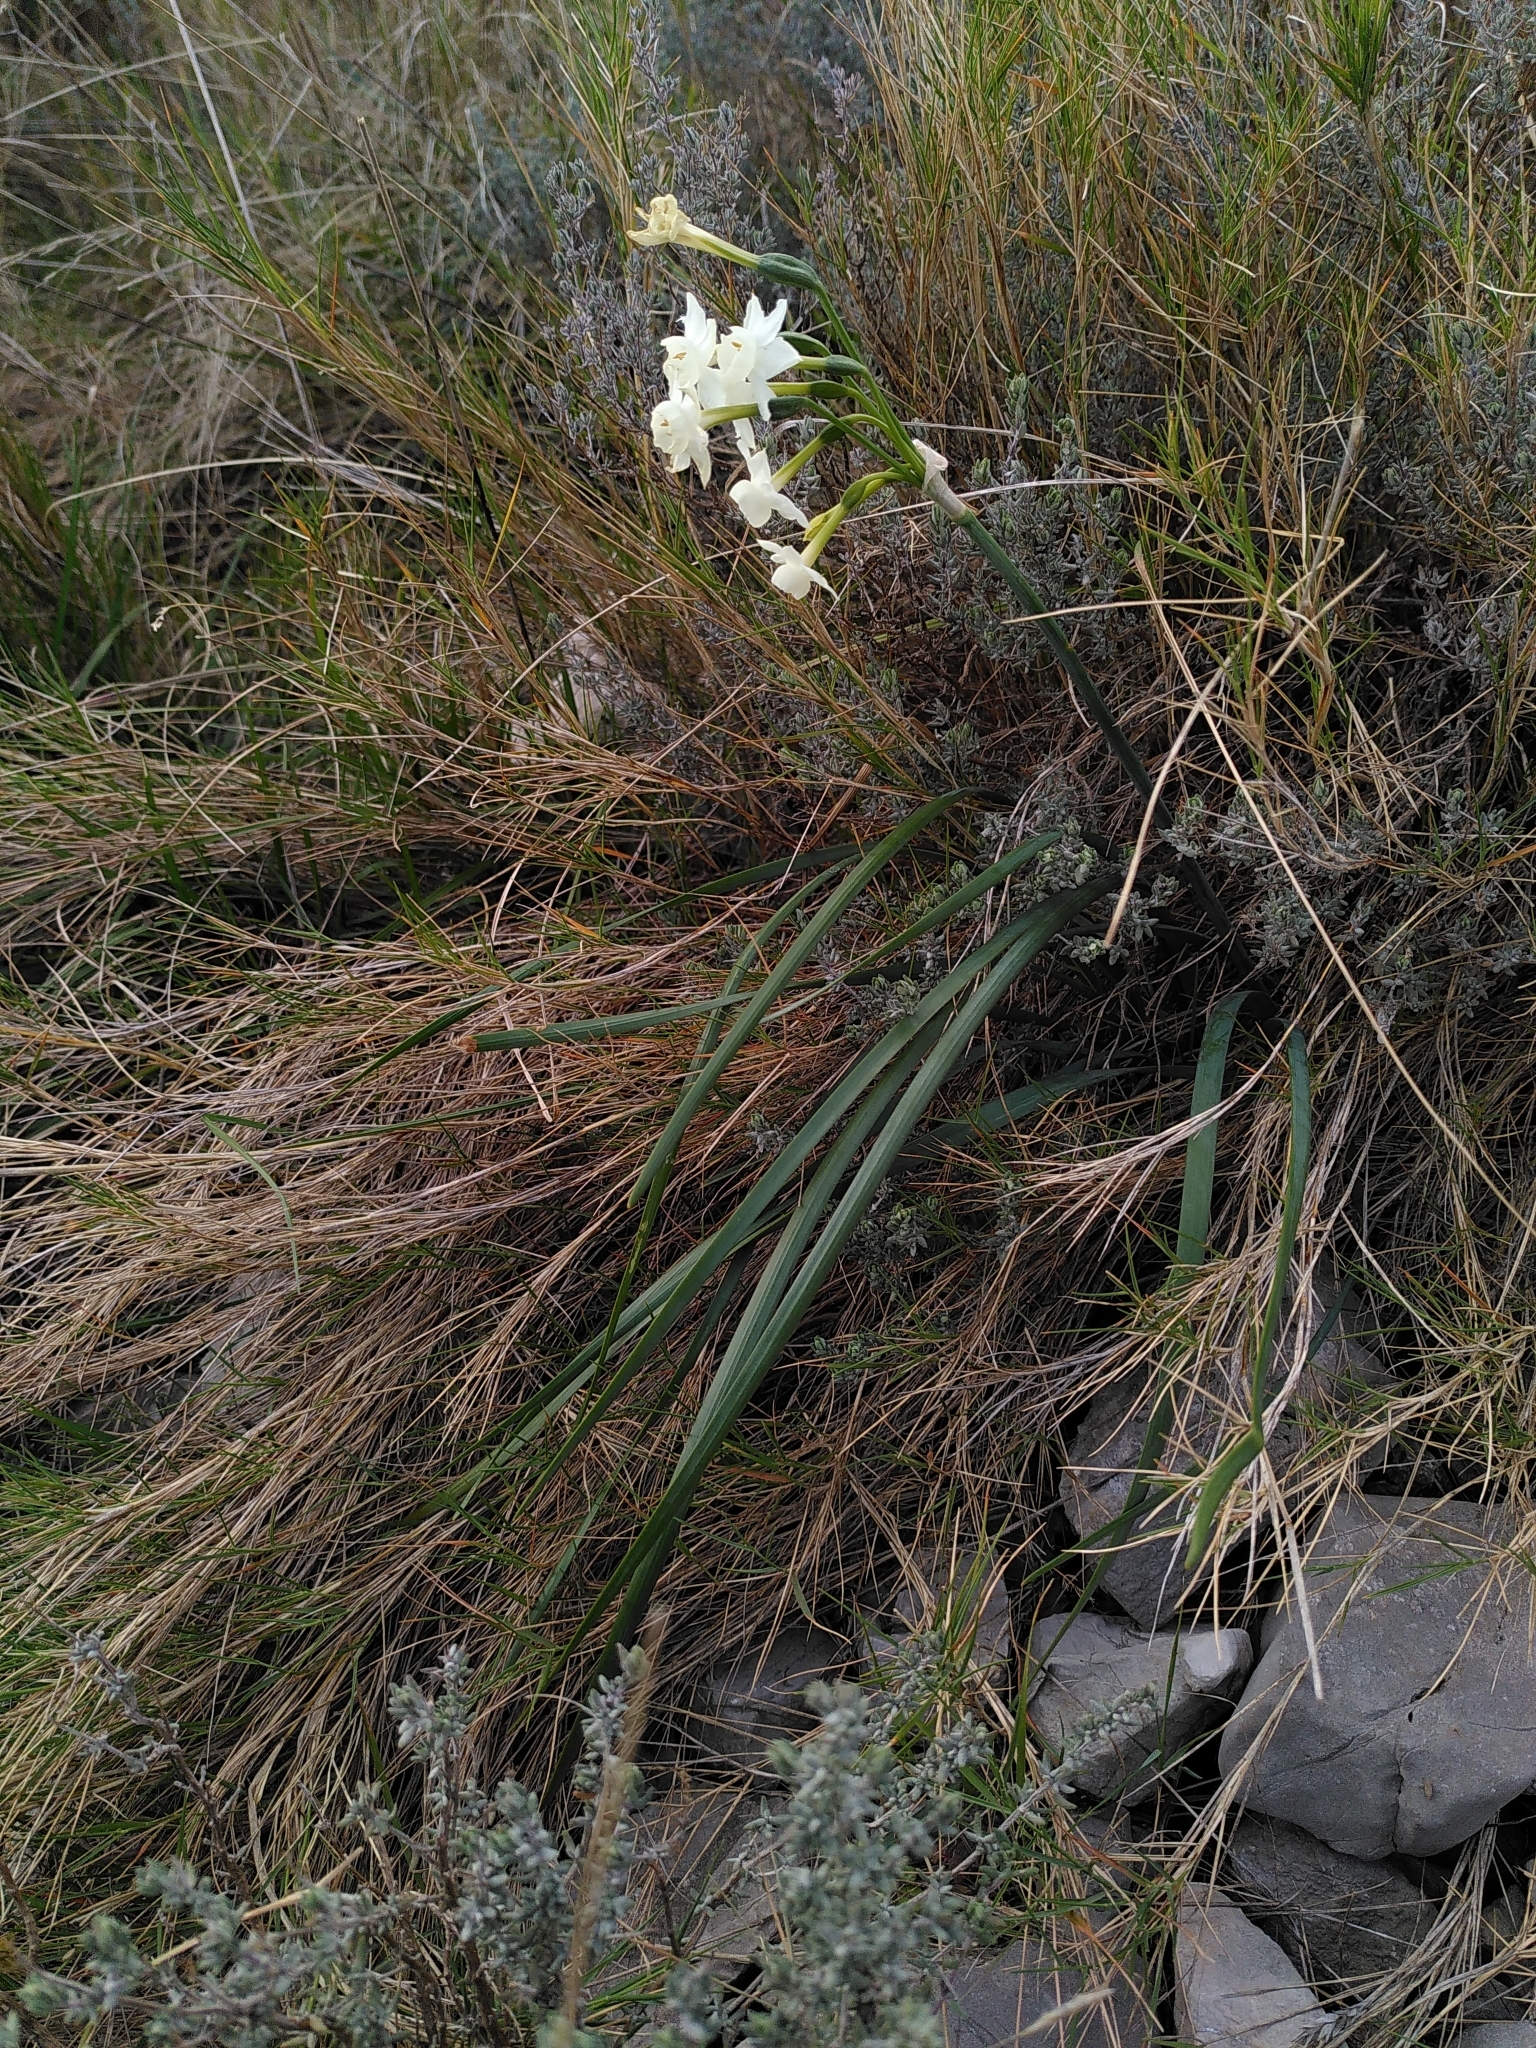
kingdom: Plantae
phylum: Tracheophyta
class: Liliopsida
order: Asparagales
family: Amaryllidaceae
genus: Narcissus
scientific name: Narcissus dubius
